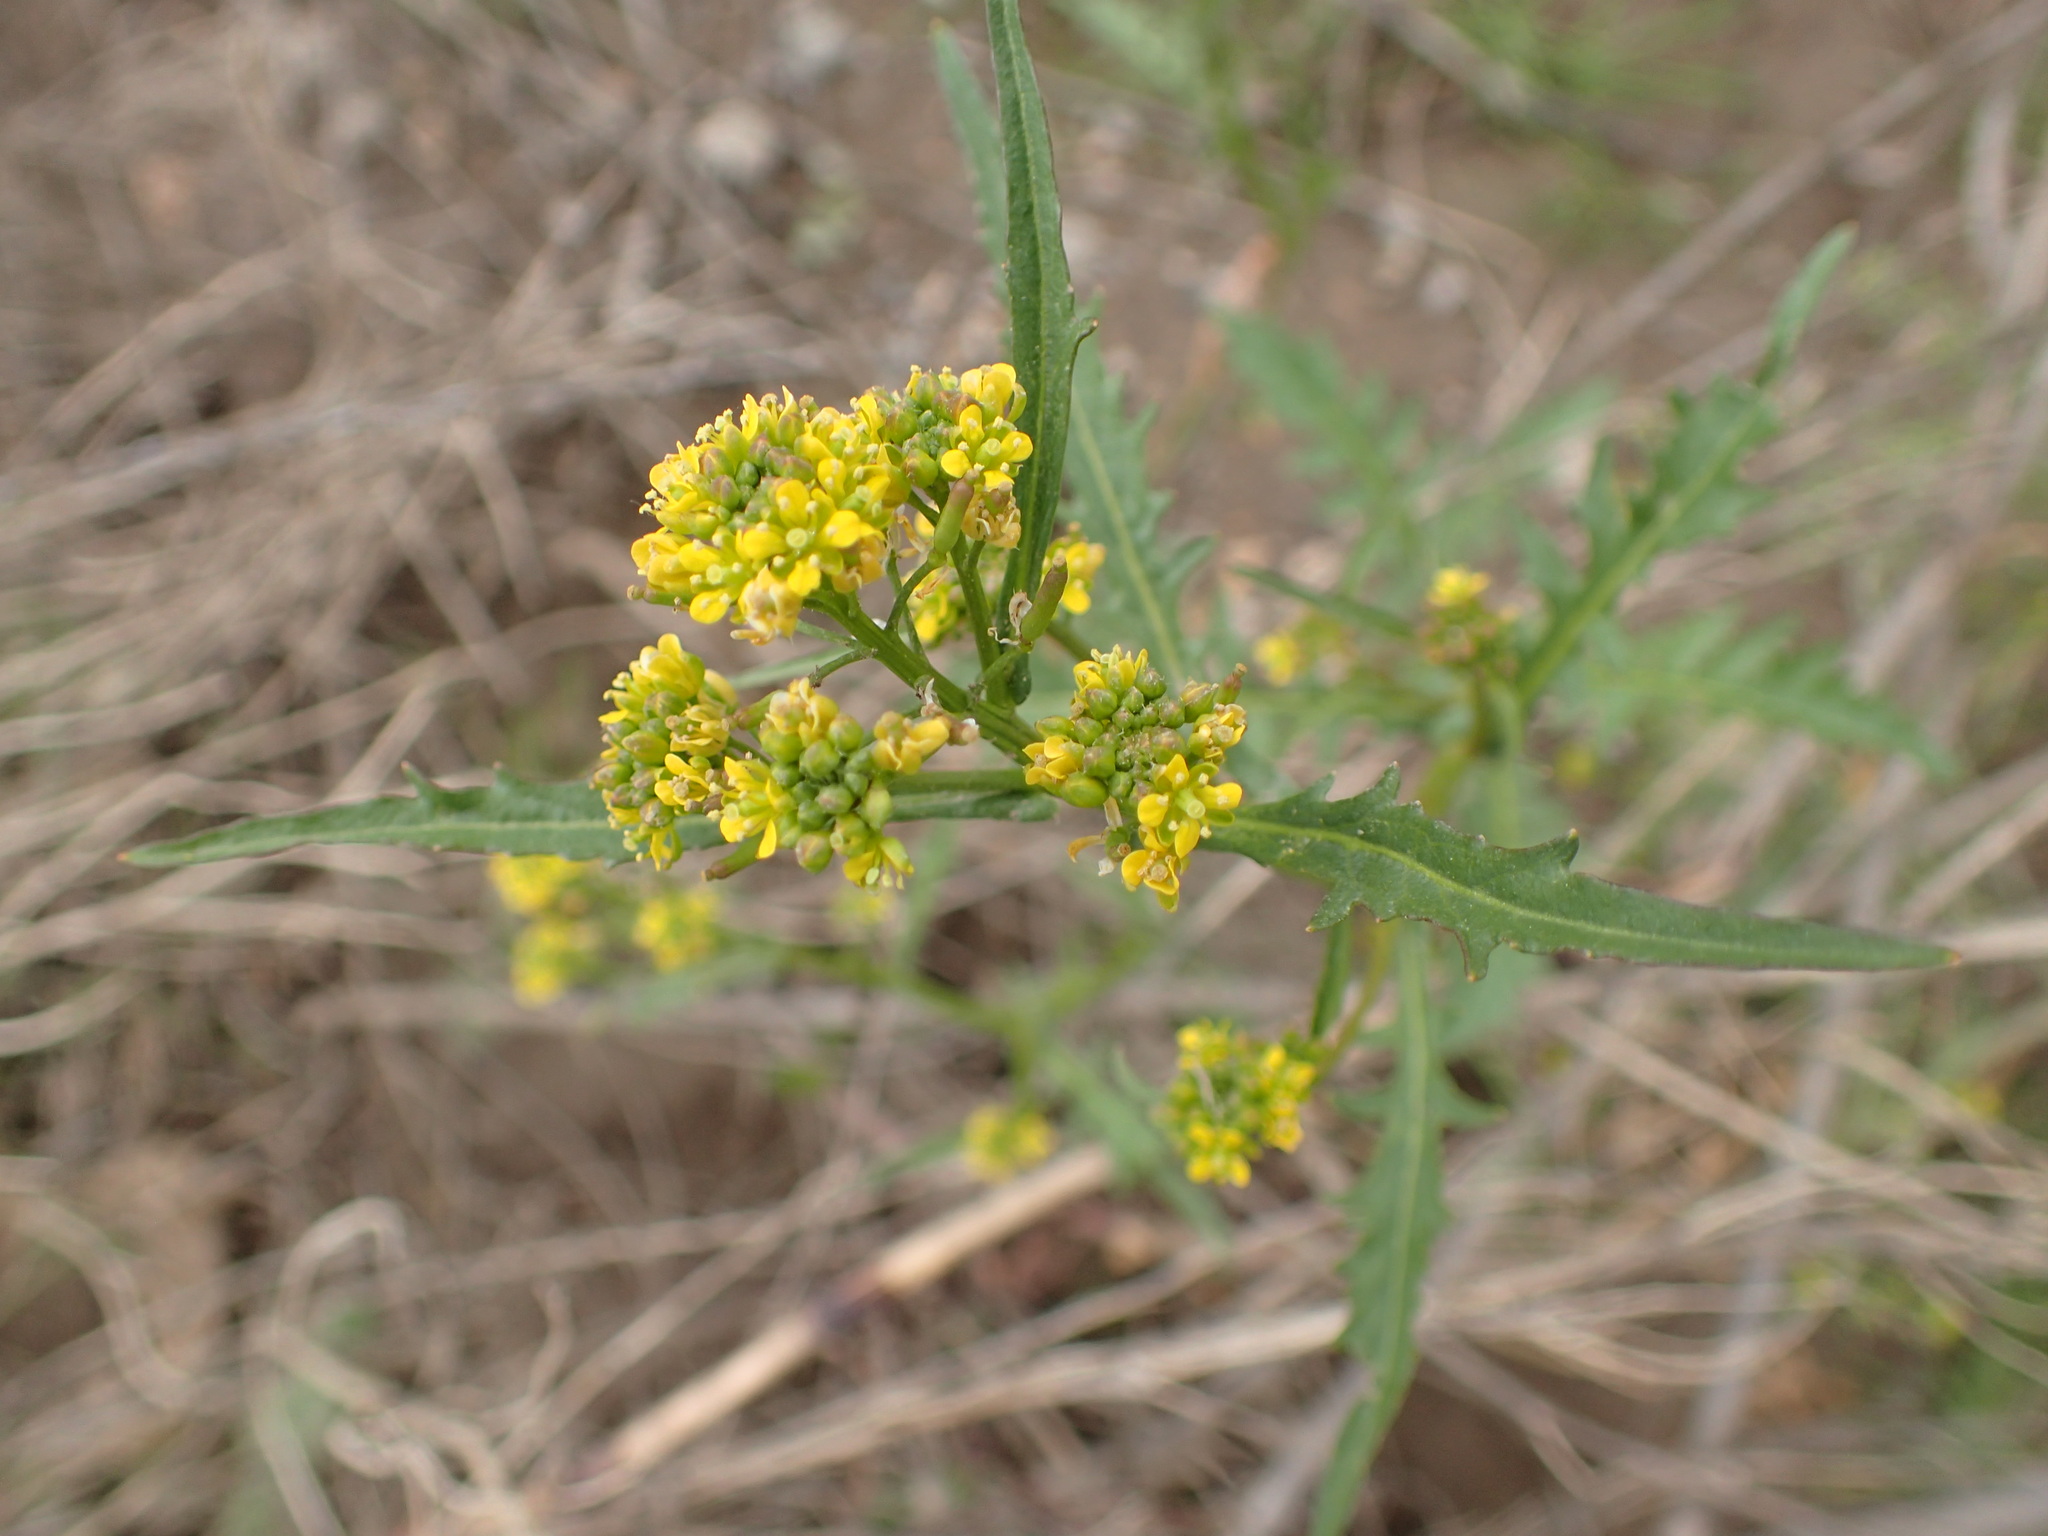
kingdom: Plantae
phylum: Tracheophyta
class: Magnoliopsida
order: Brassicales
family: Brassicaceae
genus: Rorippa
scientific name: Rorippa palustris
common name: Marsh yellow-cress
